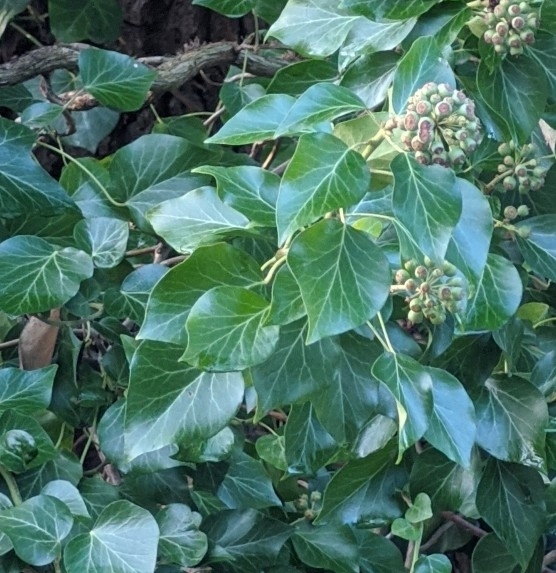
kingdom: Plantae
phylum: Tracheophyta
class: Magnoliopsida
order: Apiales
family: Araliaceae
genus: Hedera
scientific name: Hedera helix
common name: Ivy
